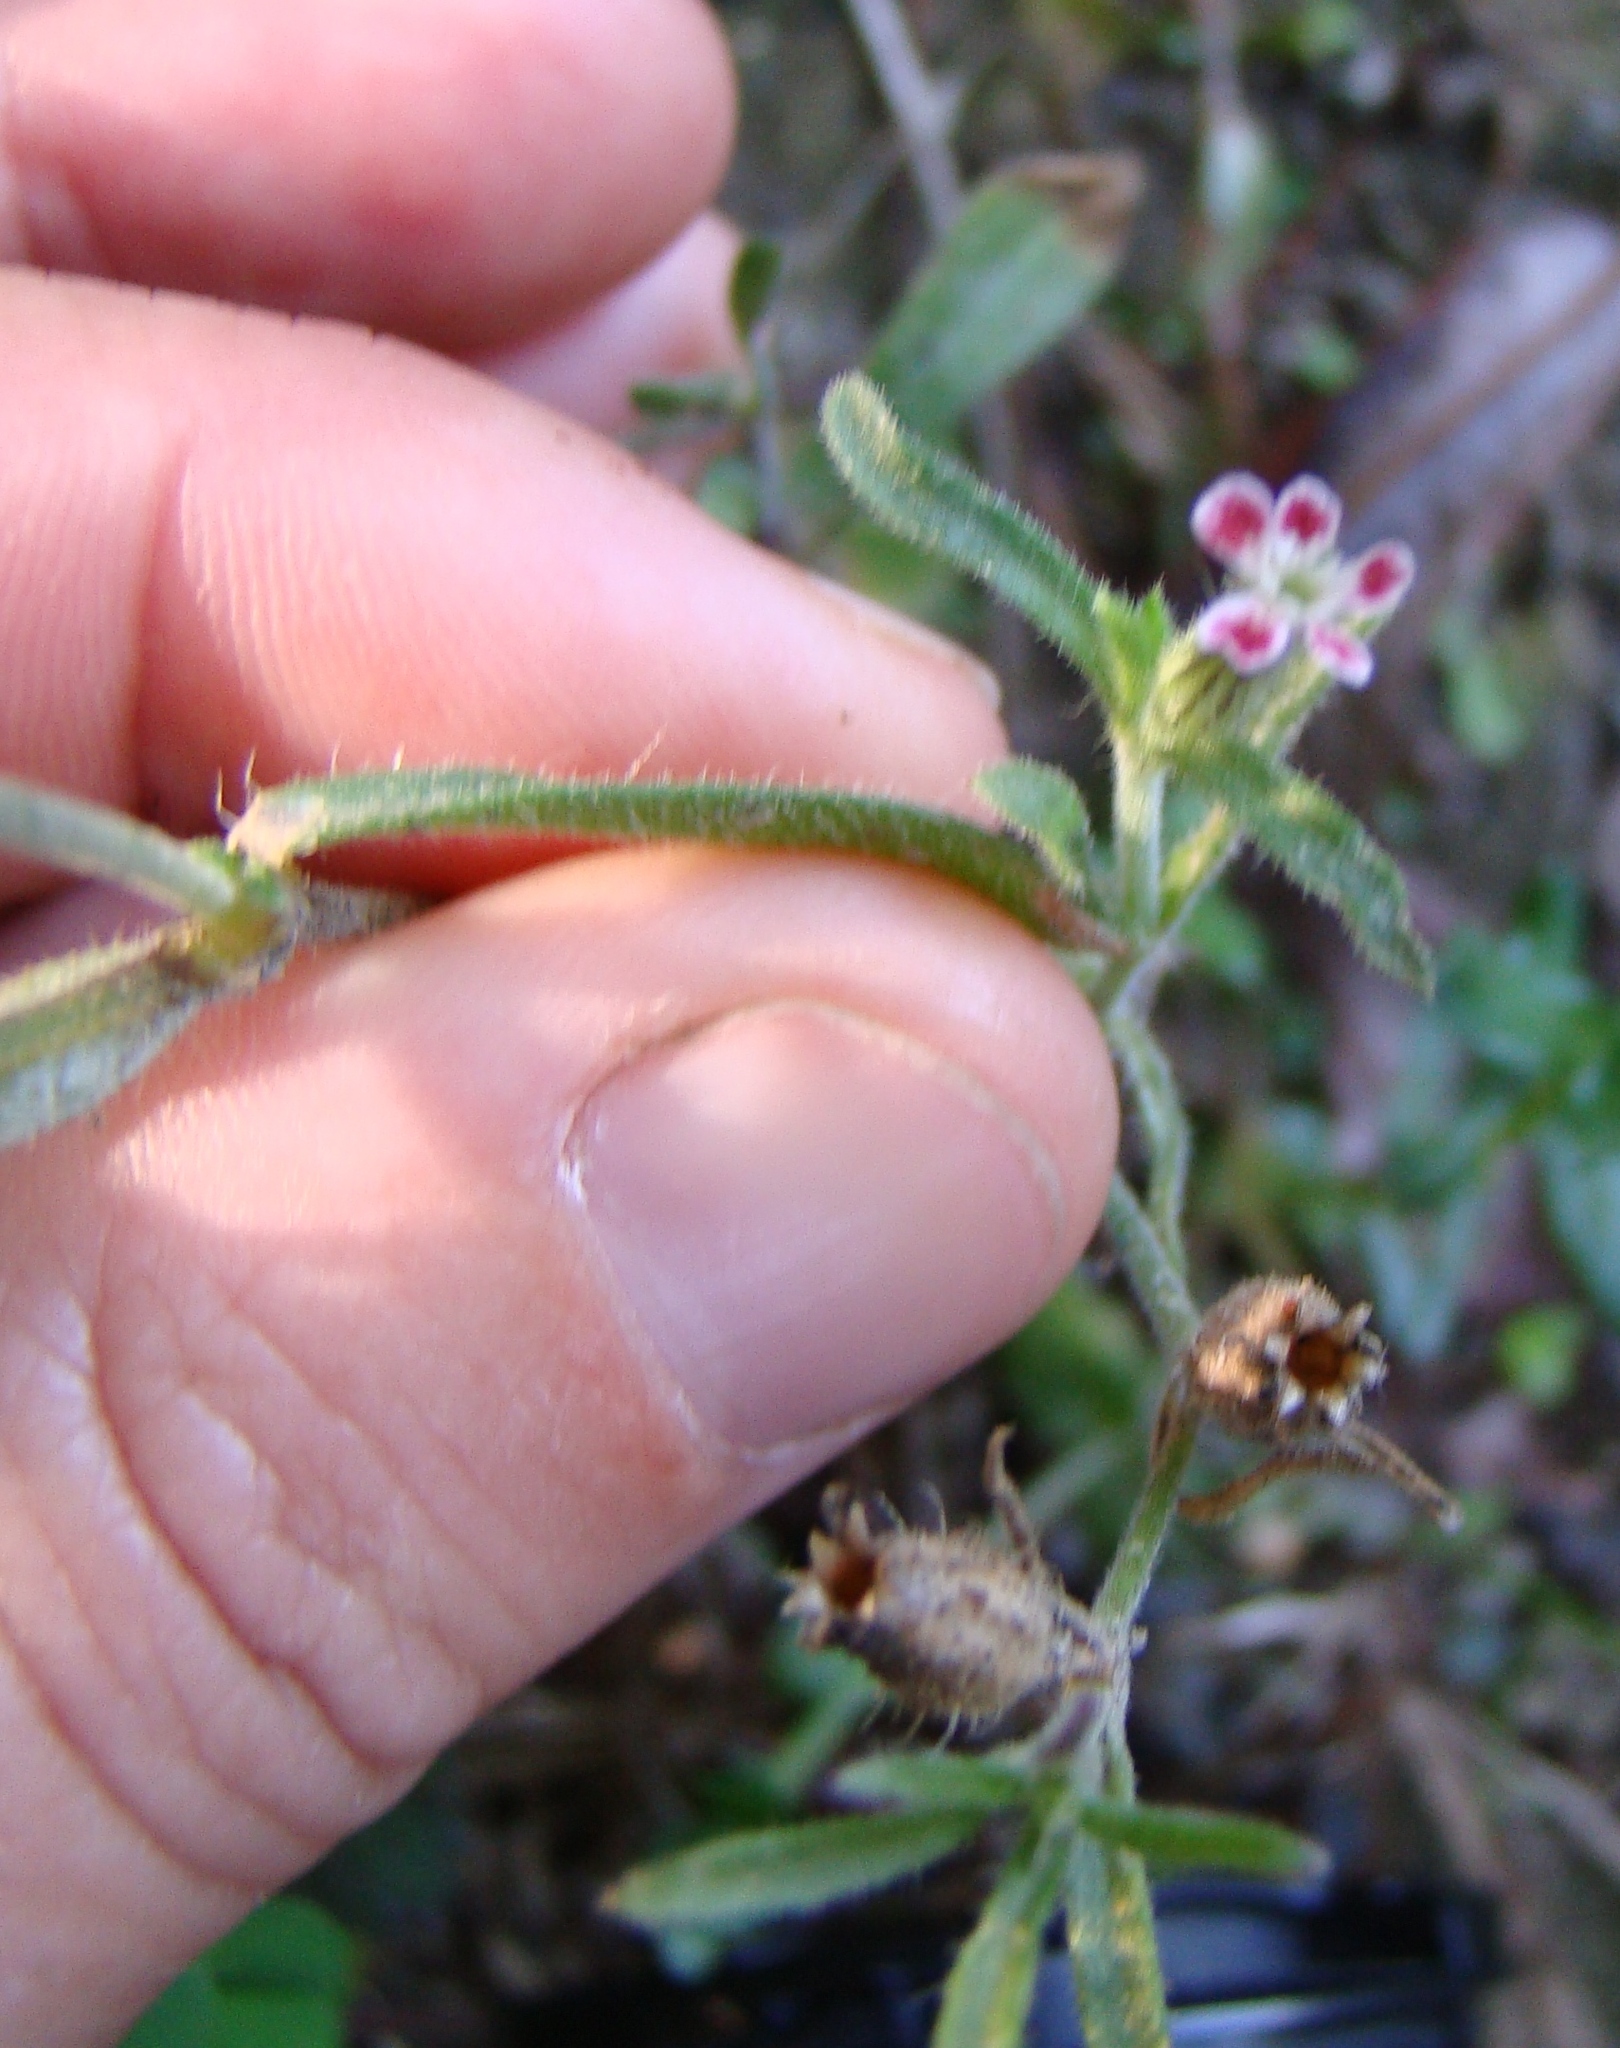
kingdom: Plantae
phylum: Tracheophyta
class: Magnoliopsida
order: Caryophyllales
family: Caryophyllaceae
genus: Silene
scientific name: Silene gallica
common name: Small-flowered catchfly
